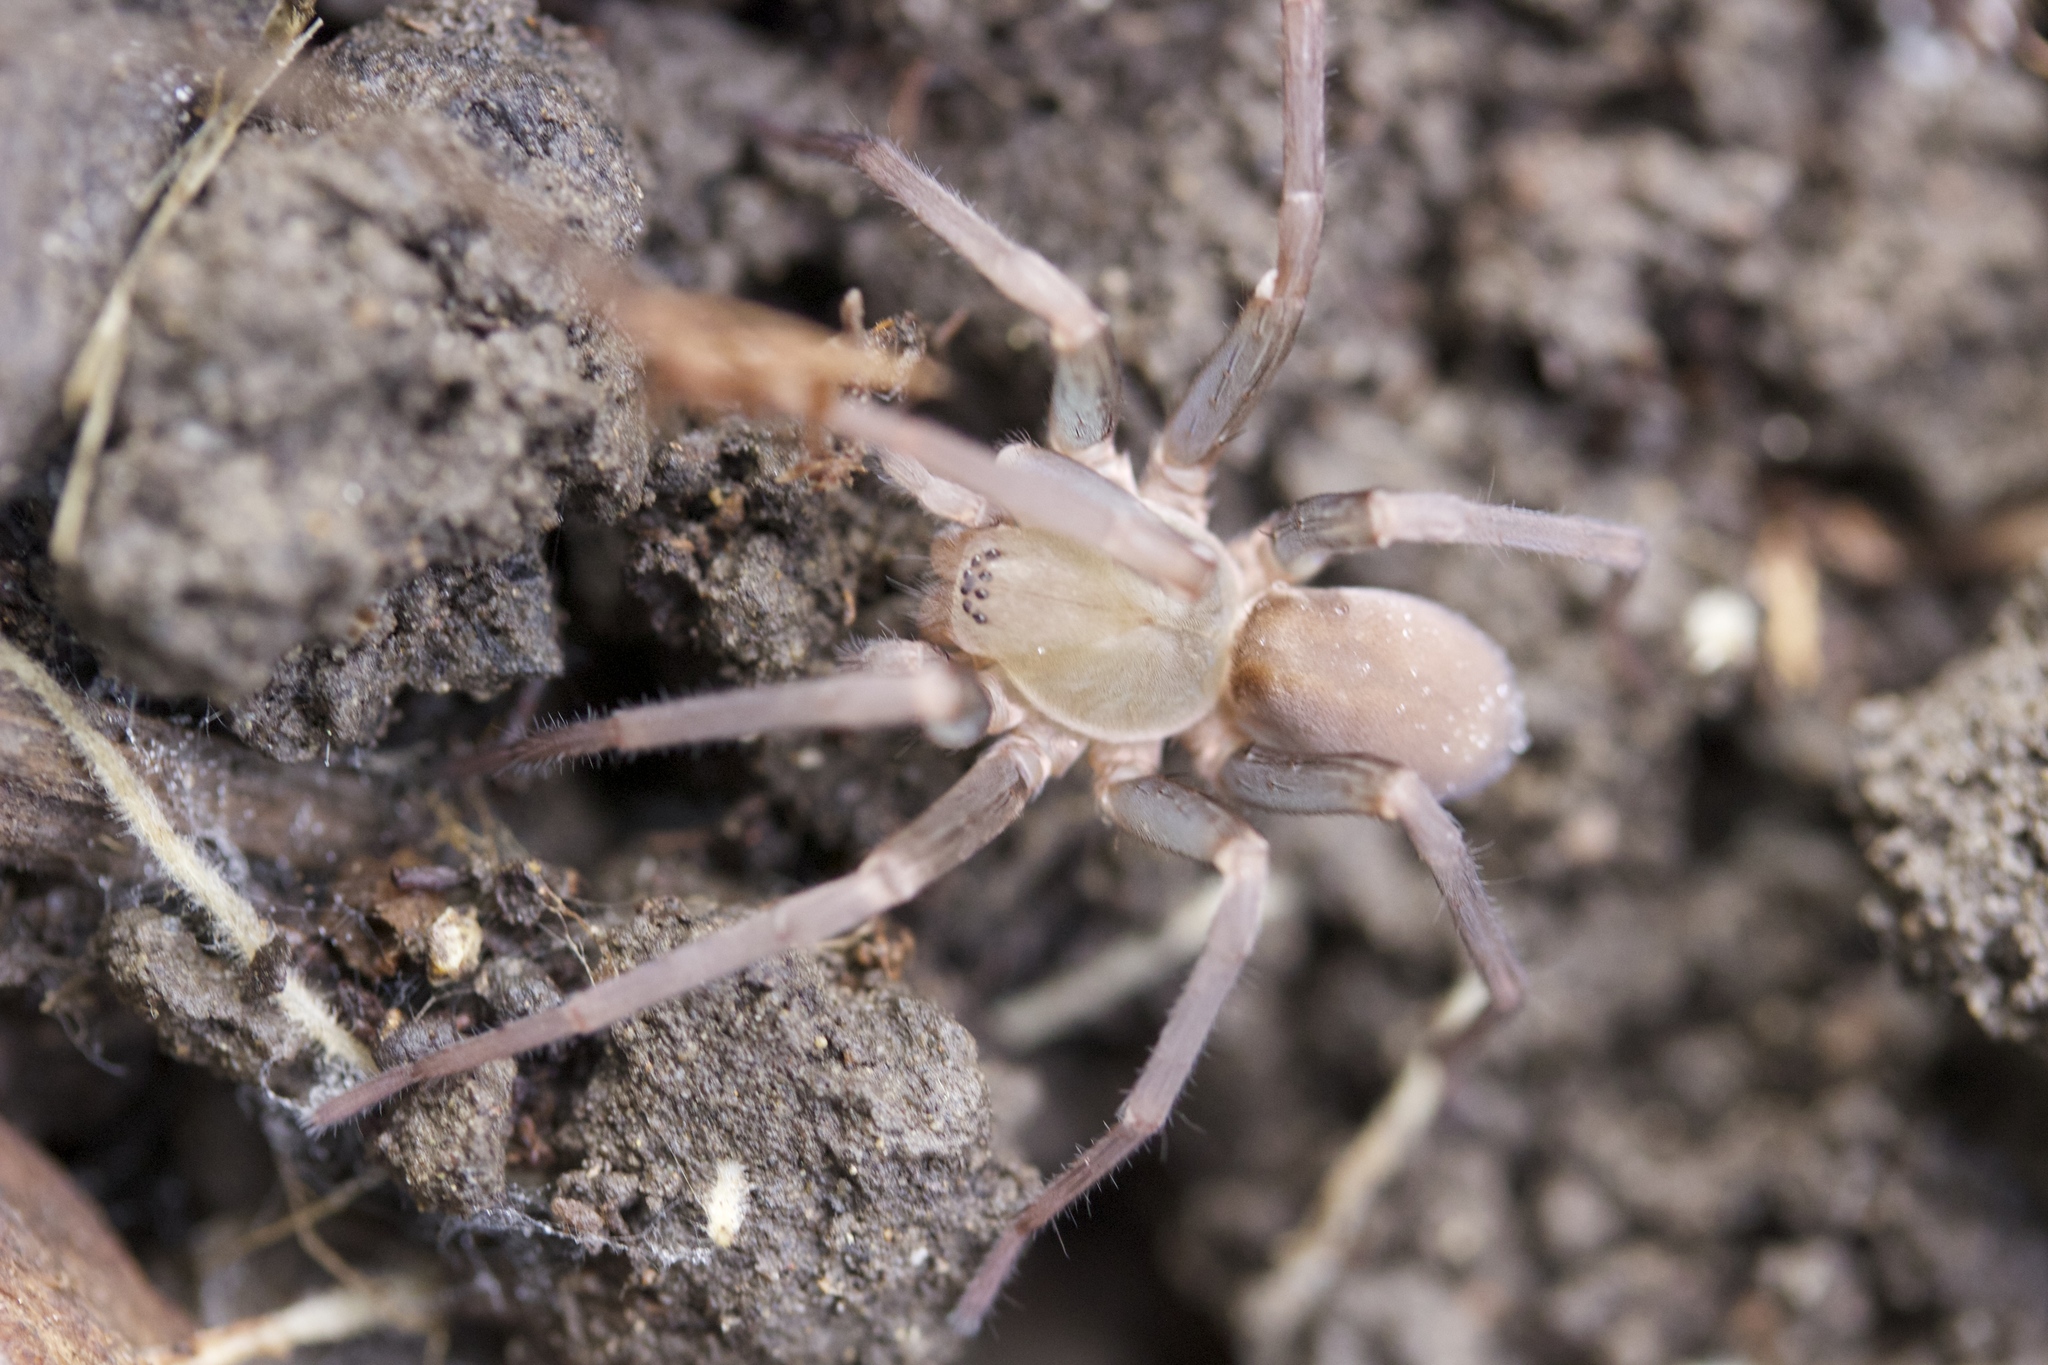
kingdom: Animalia
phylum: Arthropoda
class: Arachnida
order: Araneae
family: Zoropsidae
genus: Titiotus
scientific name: Titiotus
